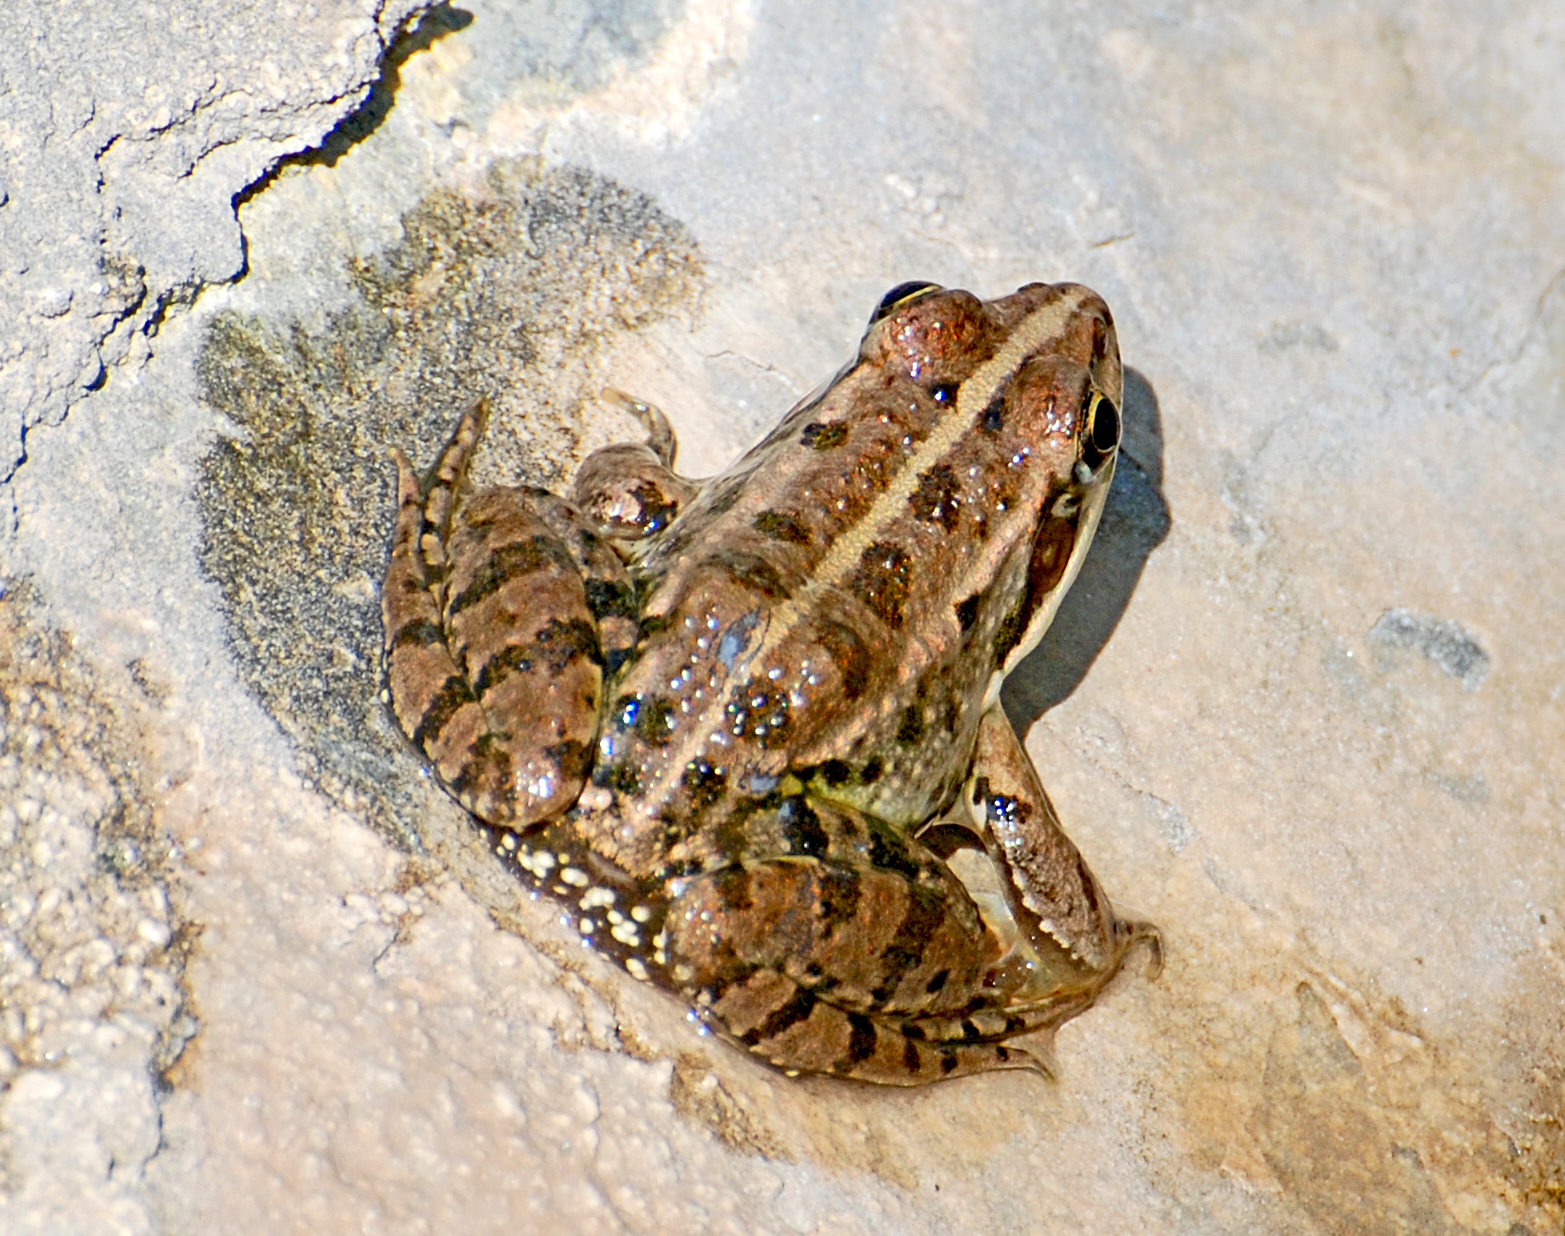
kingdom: Animalia
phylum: Chordata
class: Amphibia
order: Anura
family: Ranidae
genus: Pelophylax
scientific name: Pelophylax ridibundus
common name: Marsh frog
